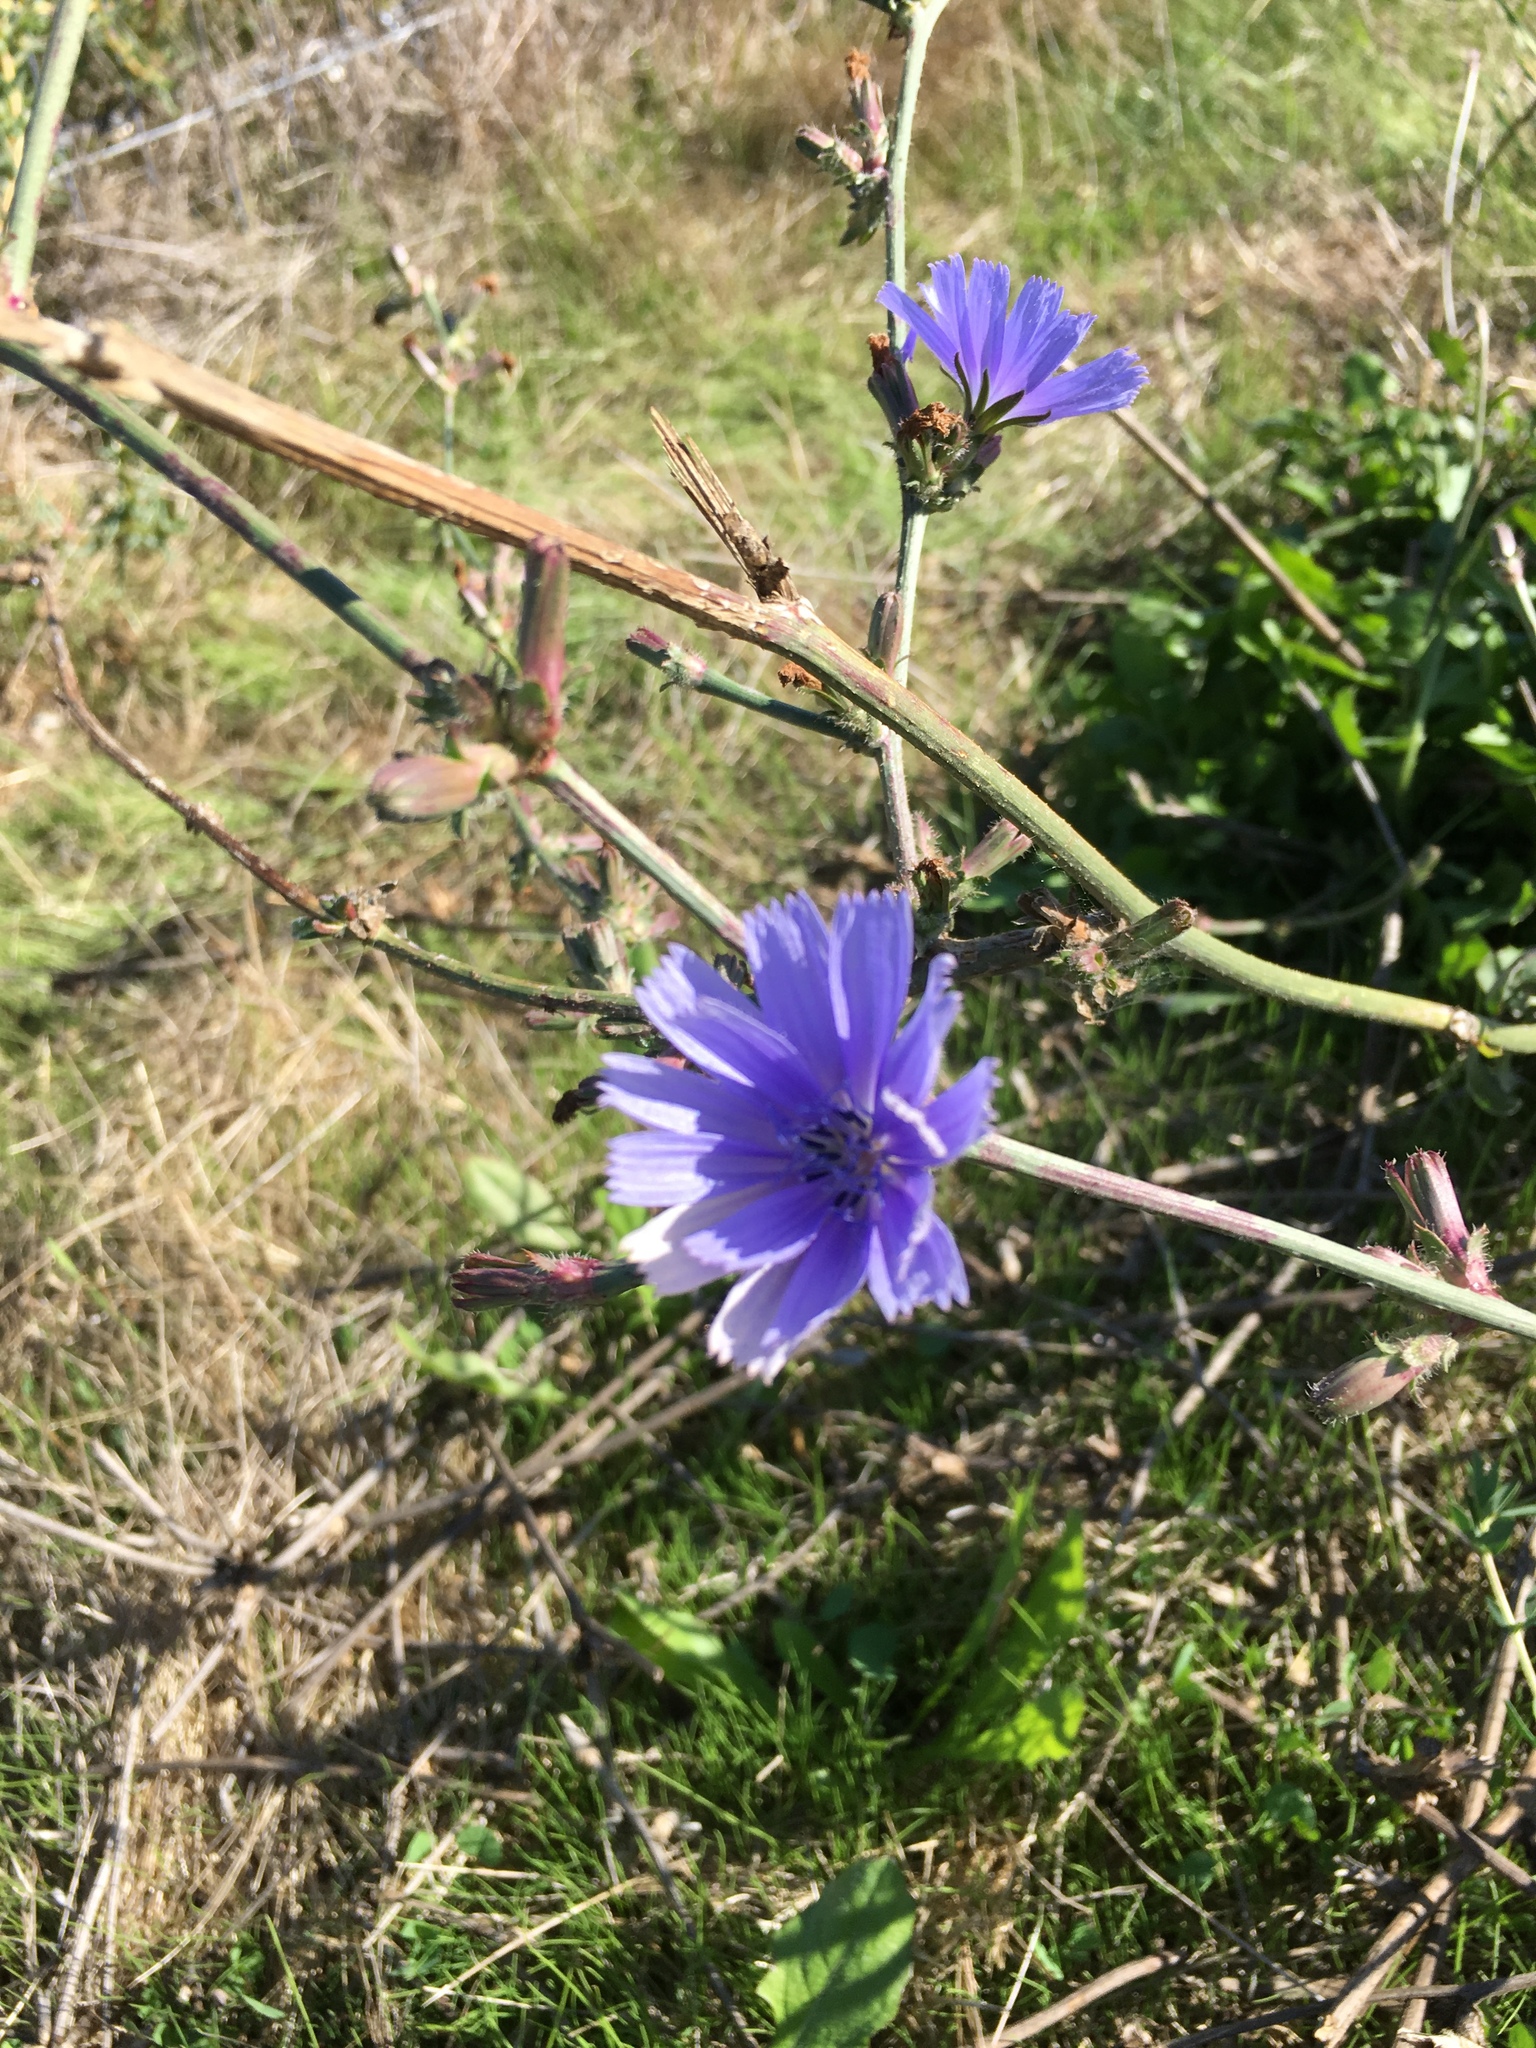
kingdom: Plantae
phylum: Tracheophyta
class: Magnoliopsida
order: Asterales
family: Asteraceae
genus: Cichorium
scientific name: Cichorium intybus
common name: Chicory
